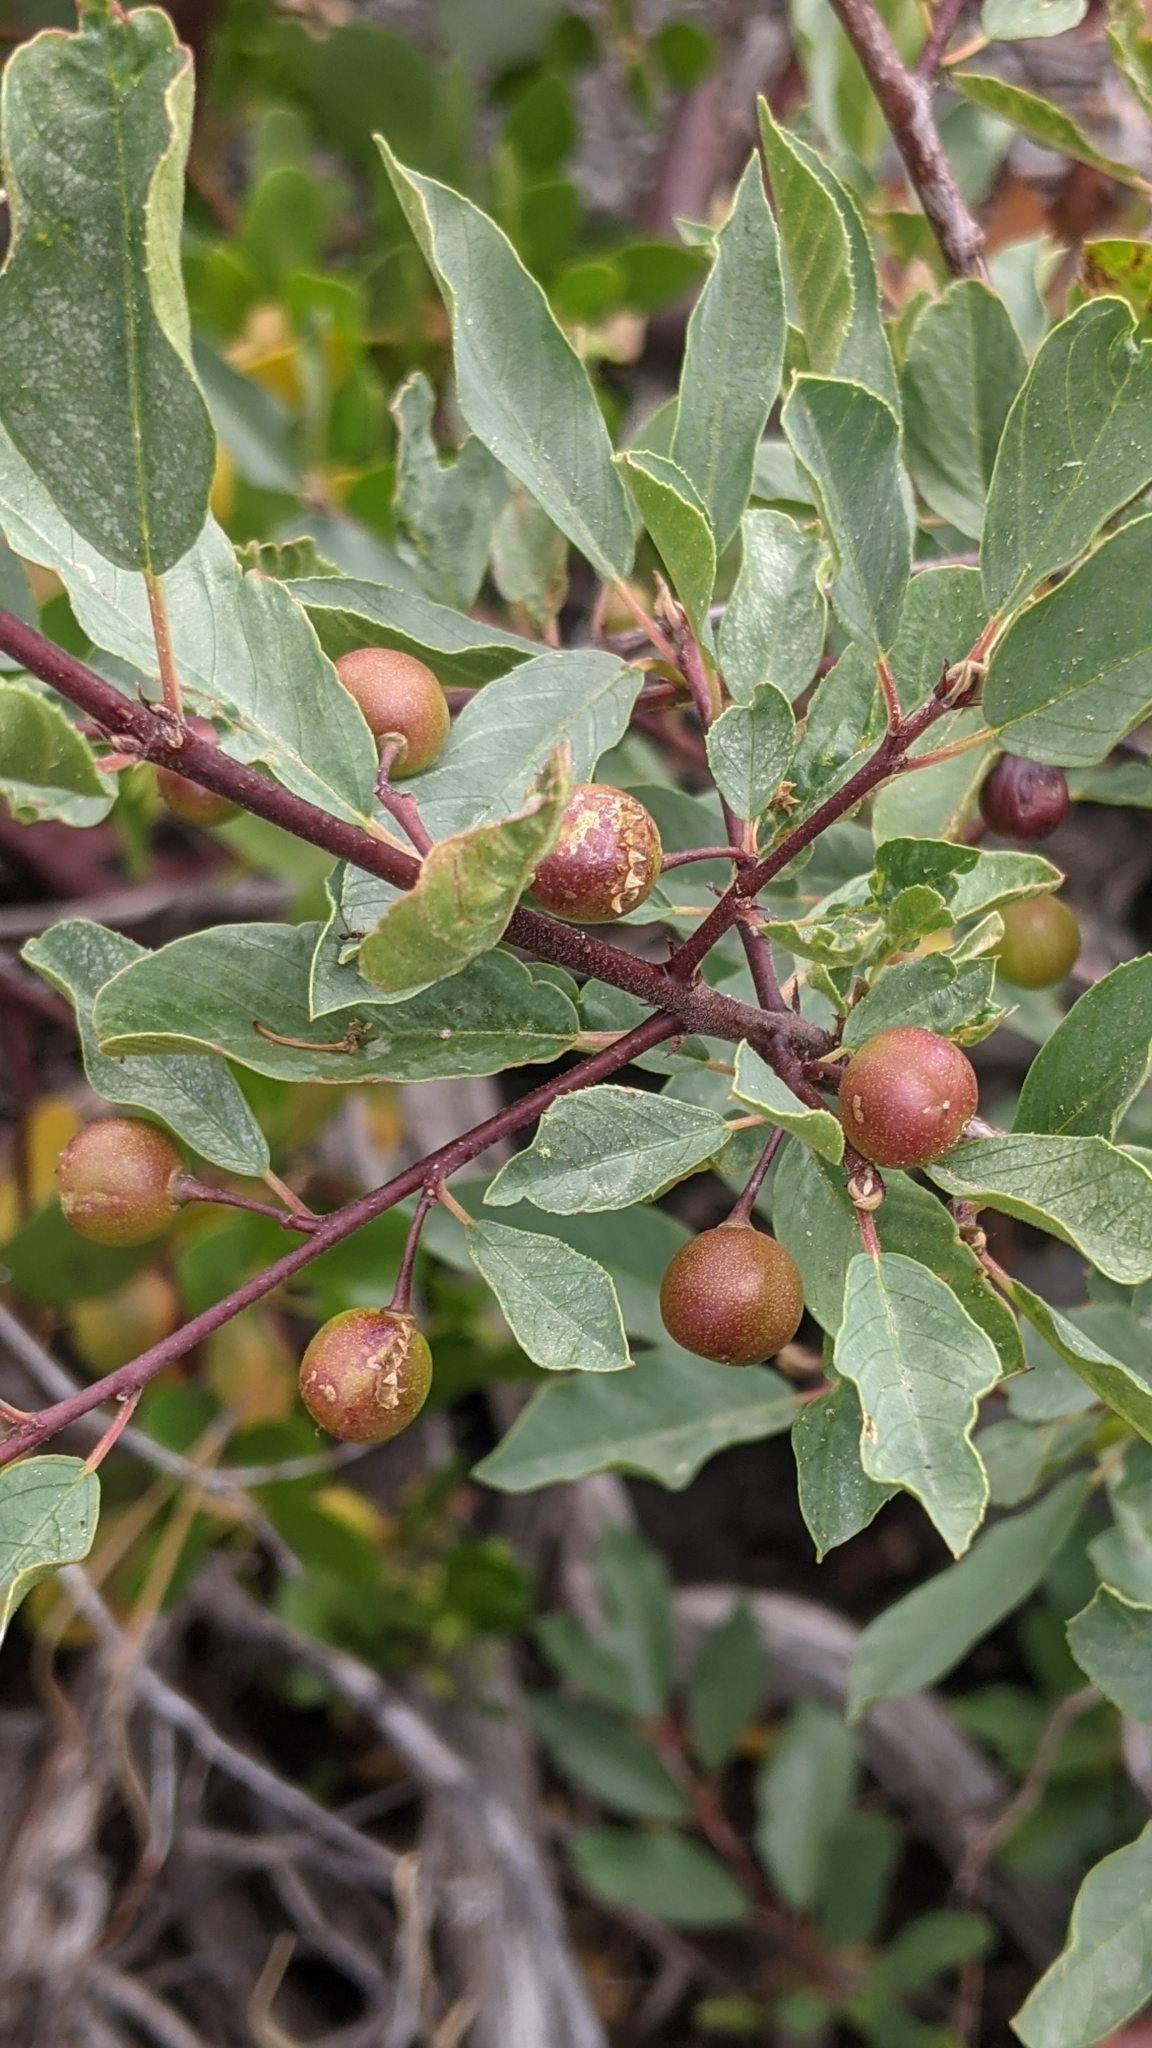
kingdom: Plantae
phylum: Tracheophyta
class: Magnoliopsida
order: Rosales
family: Rhamnaceae
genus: Frangula
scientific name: Frangula californica
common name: California buckthorn
